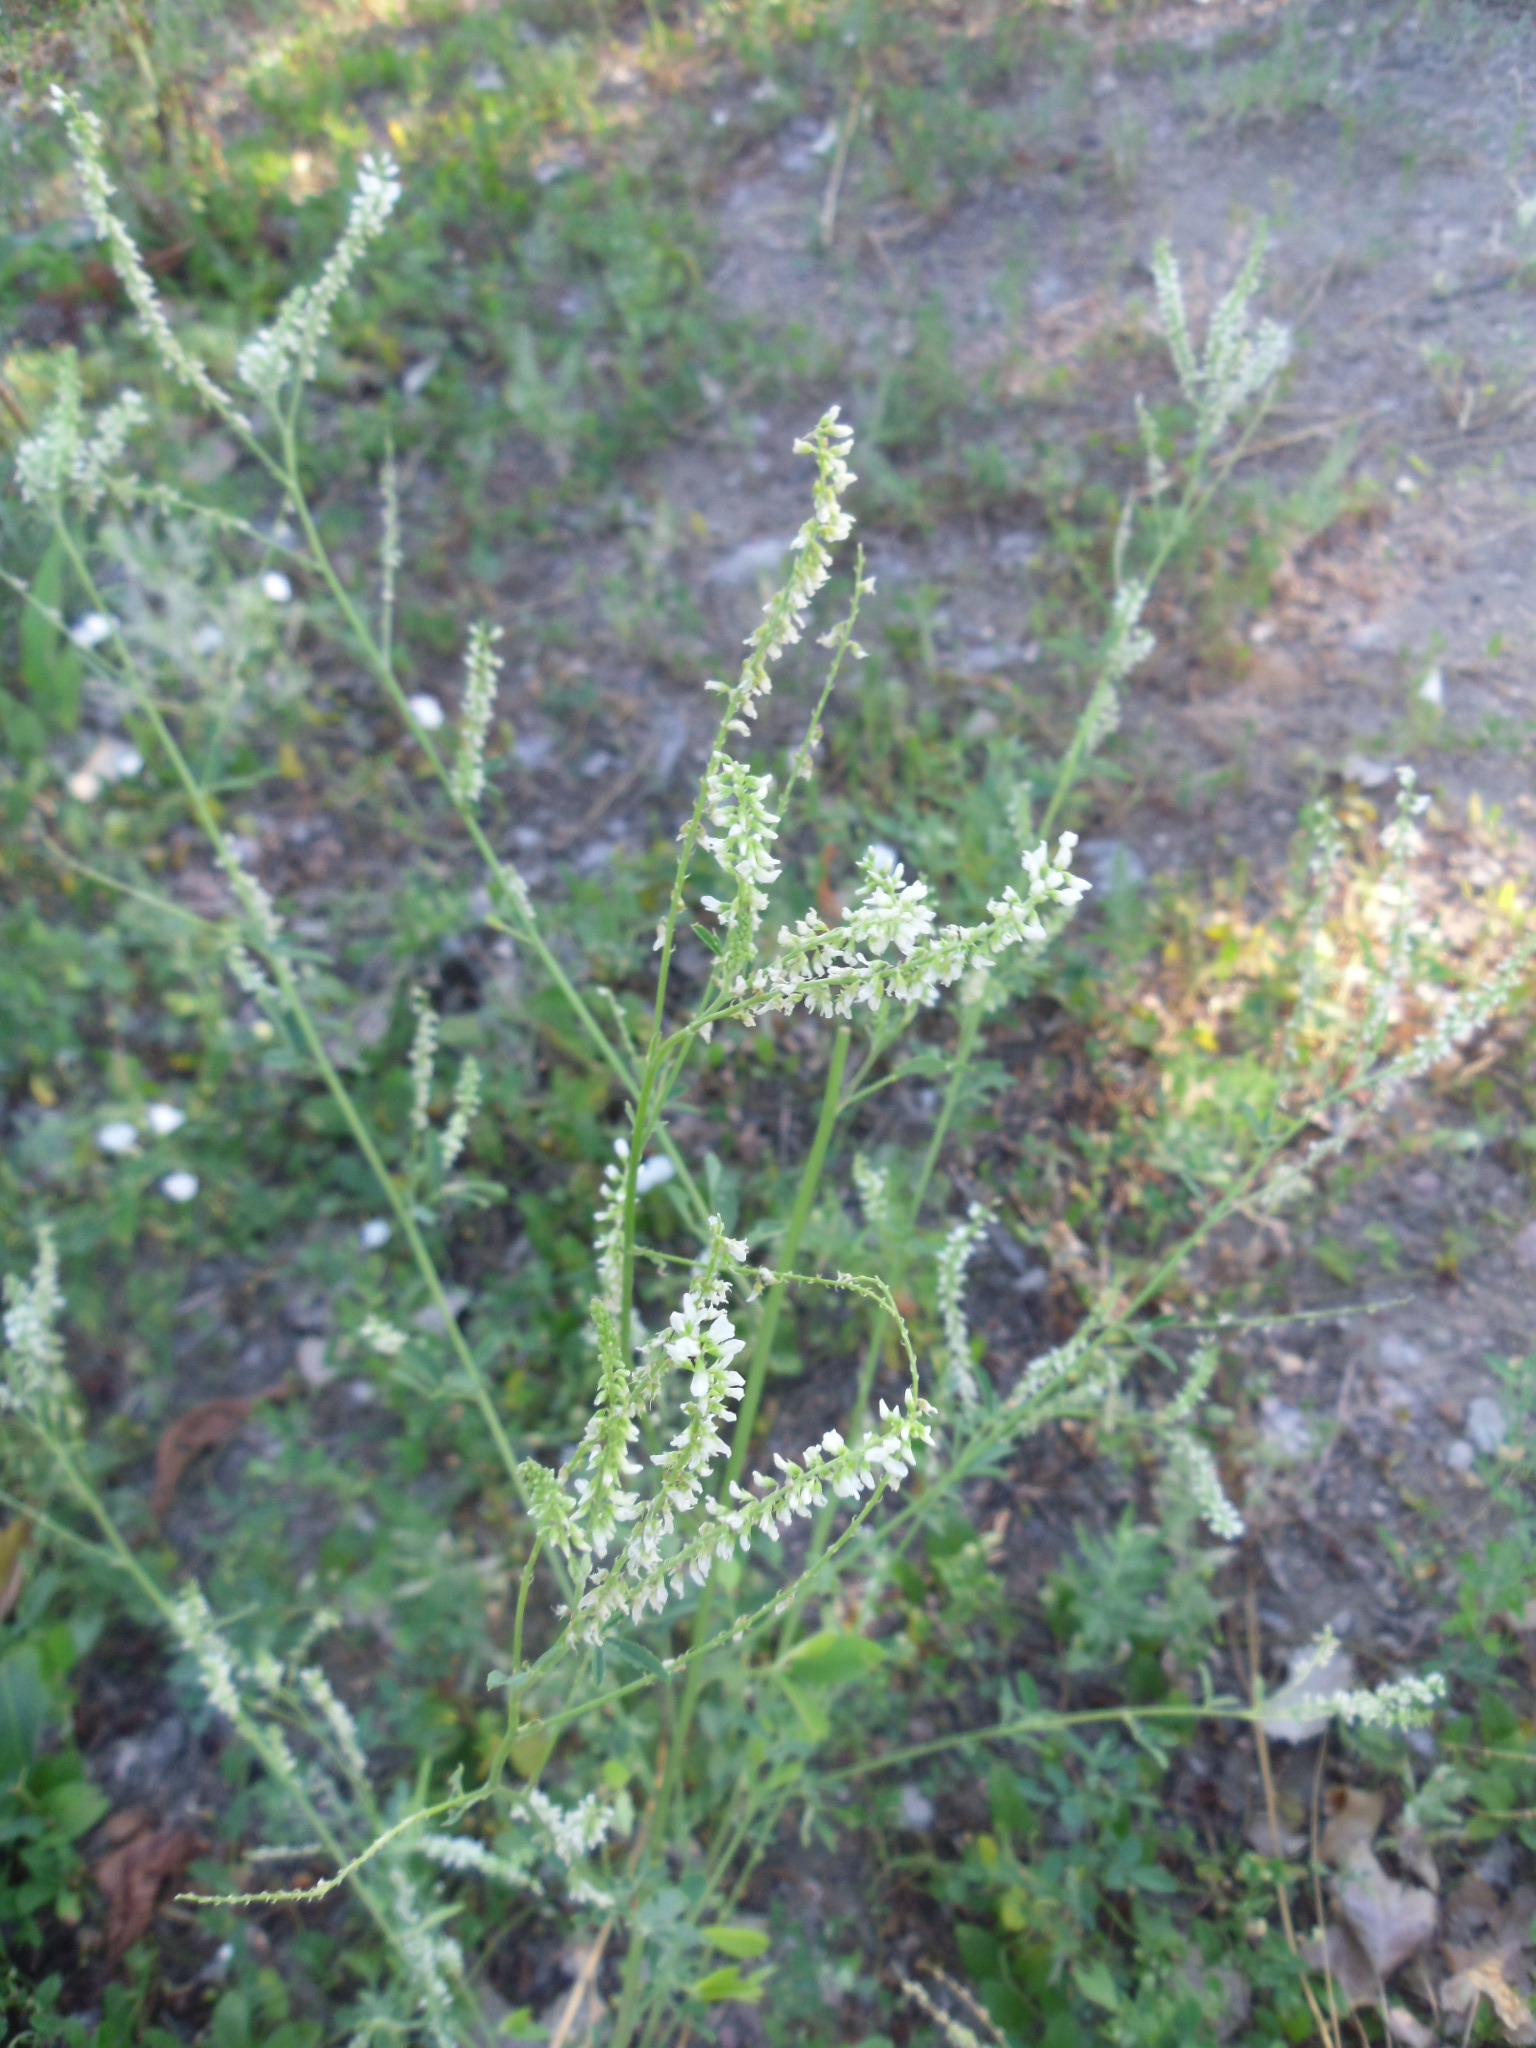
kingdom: Plantae
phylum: Tracheophyta
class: Magnoliopsida
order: Fabales
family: Fabaceae
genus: Melilotus
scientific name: Melilotus albus
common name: White melilot
